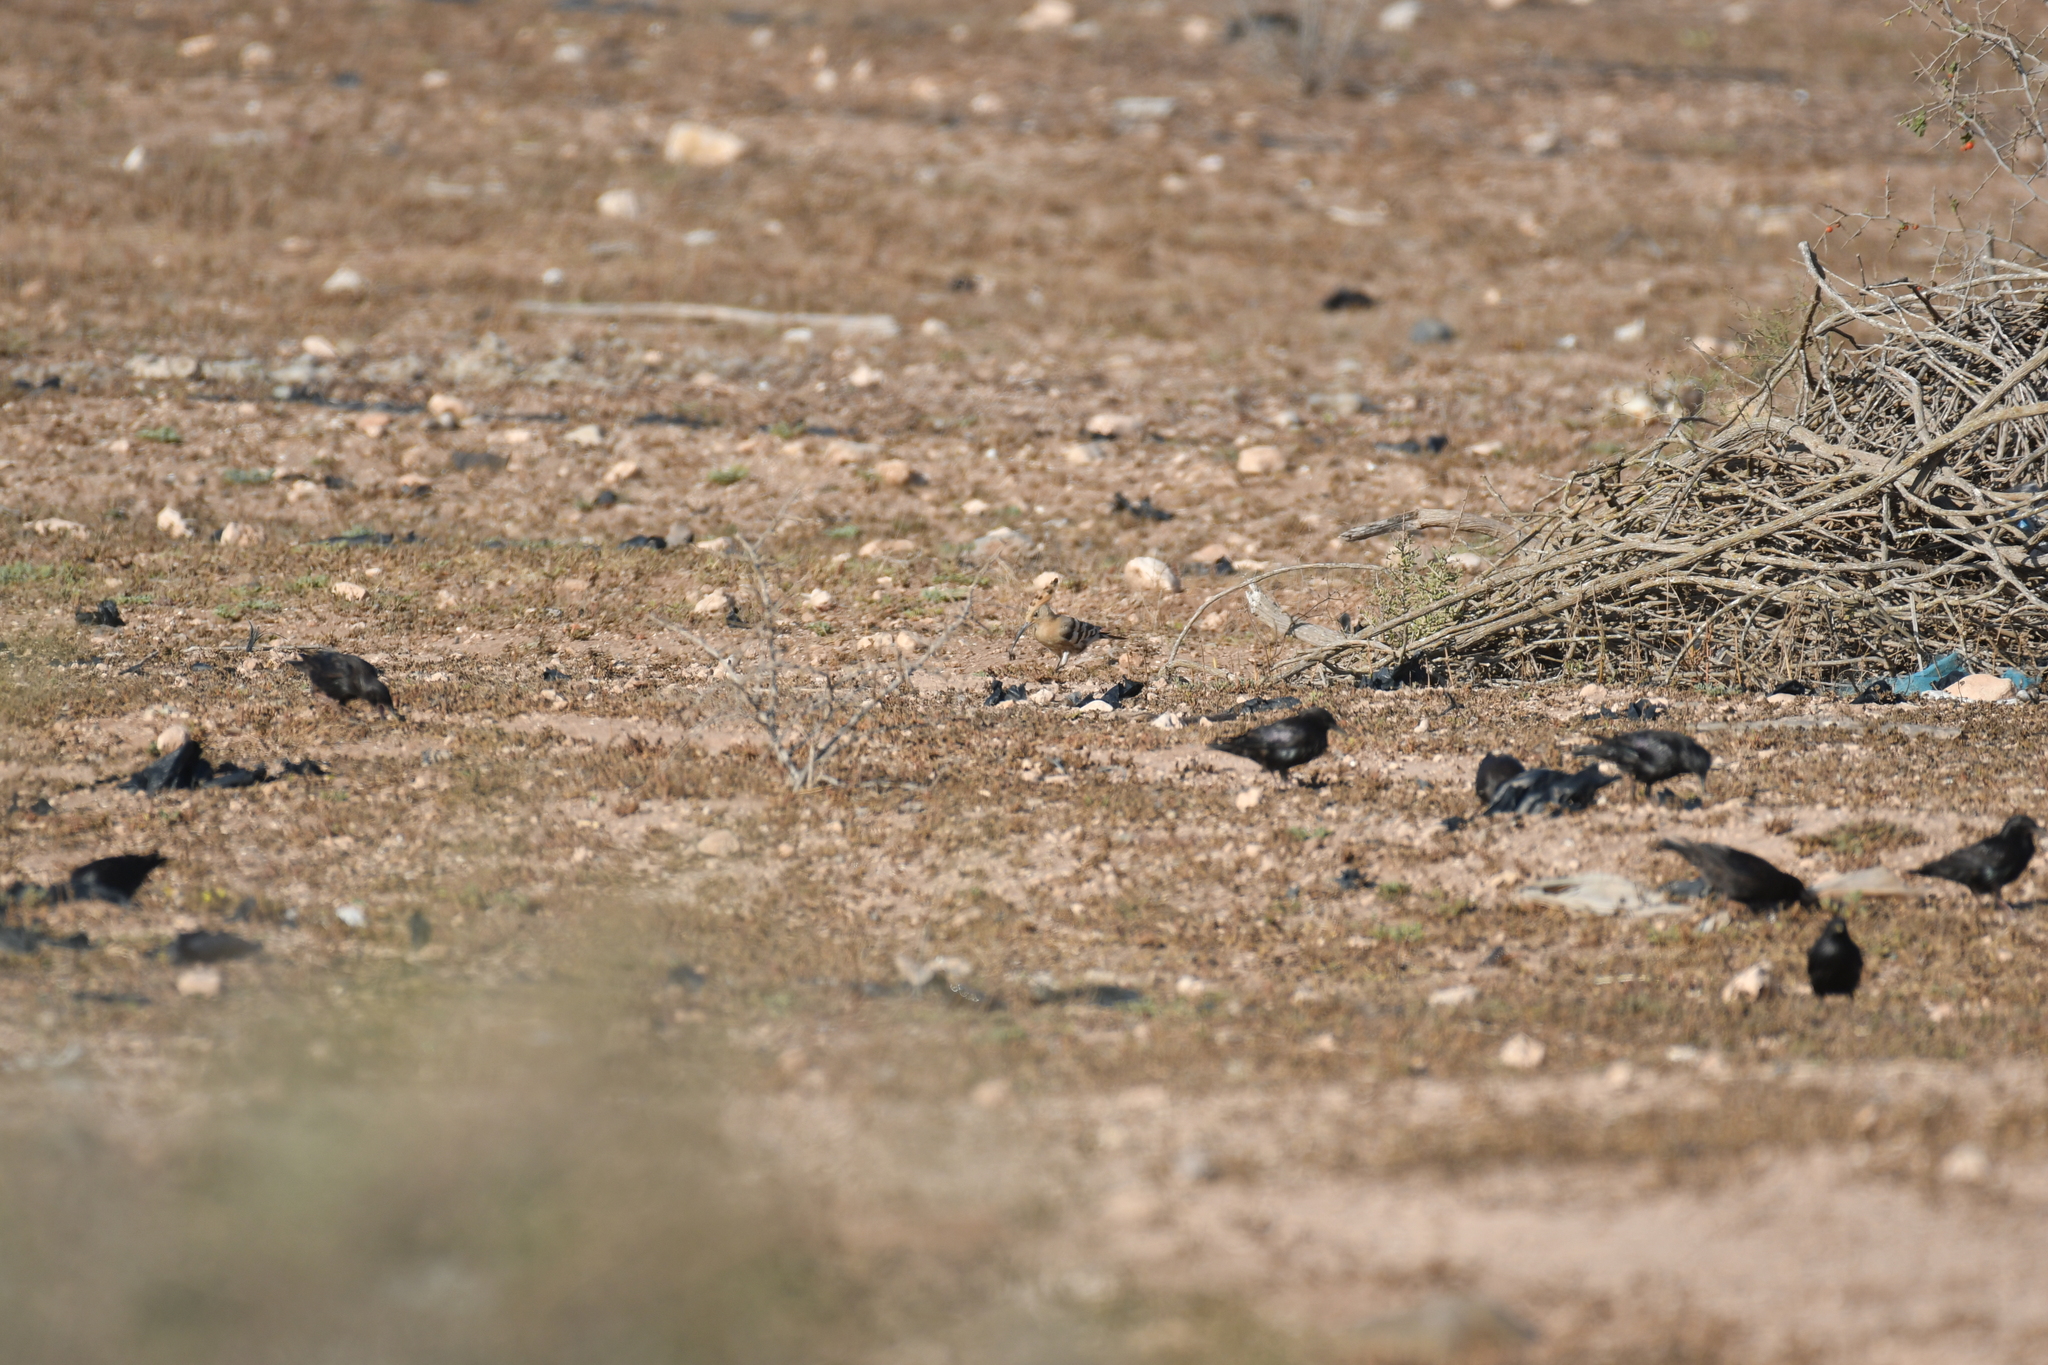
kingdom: Animalia
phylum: Chordata
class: Aves
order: Passeriformes
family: Sturnidae
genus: Sturnus
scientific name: Sturnus unicolor
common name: Spotless starling
